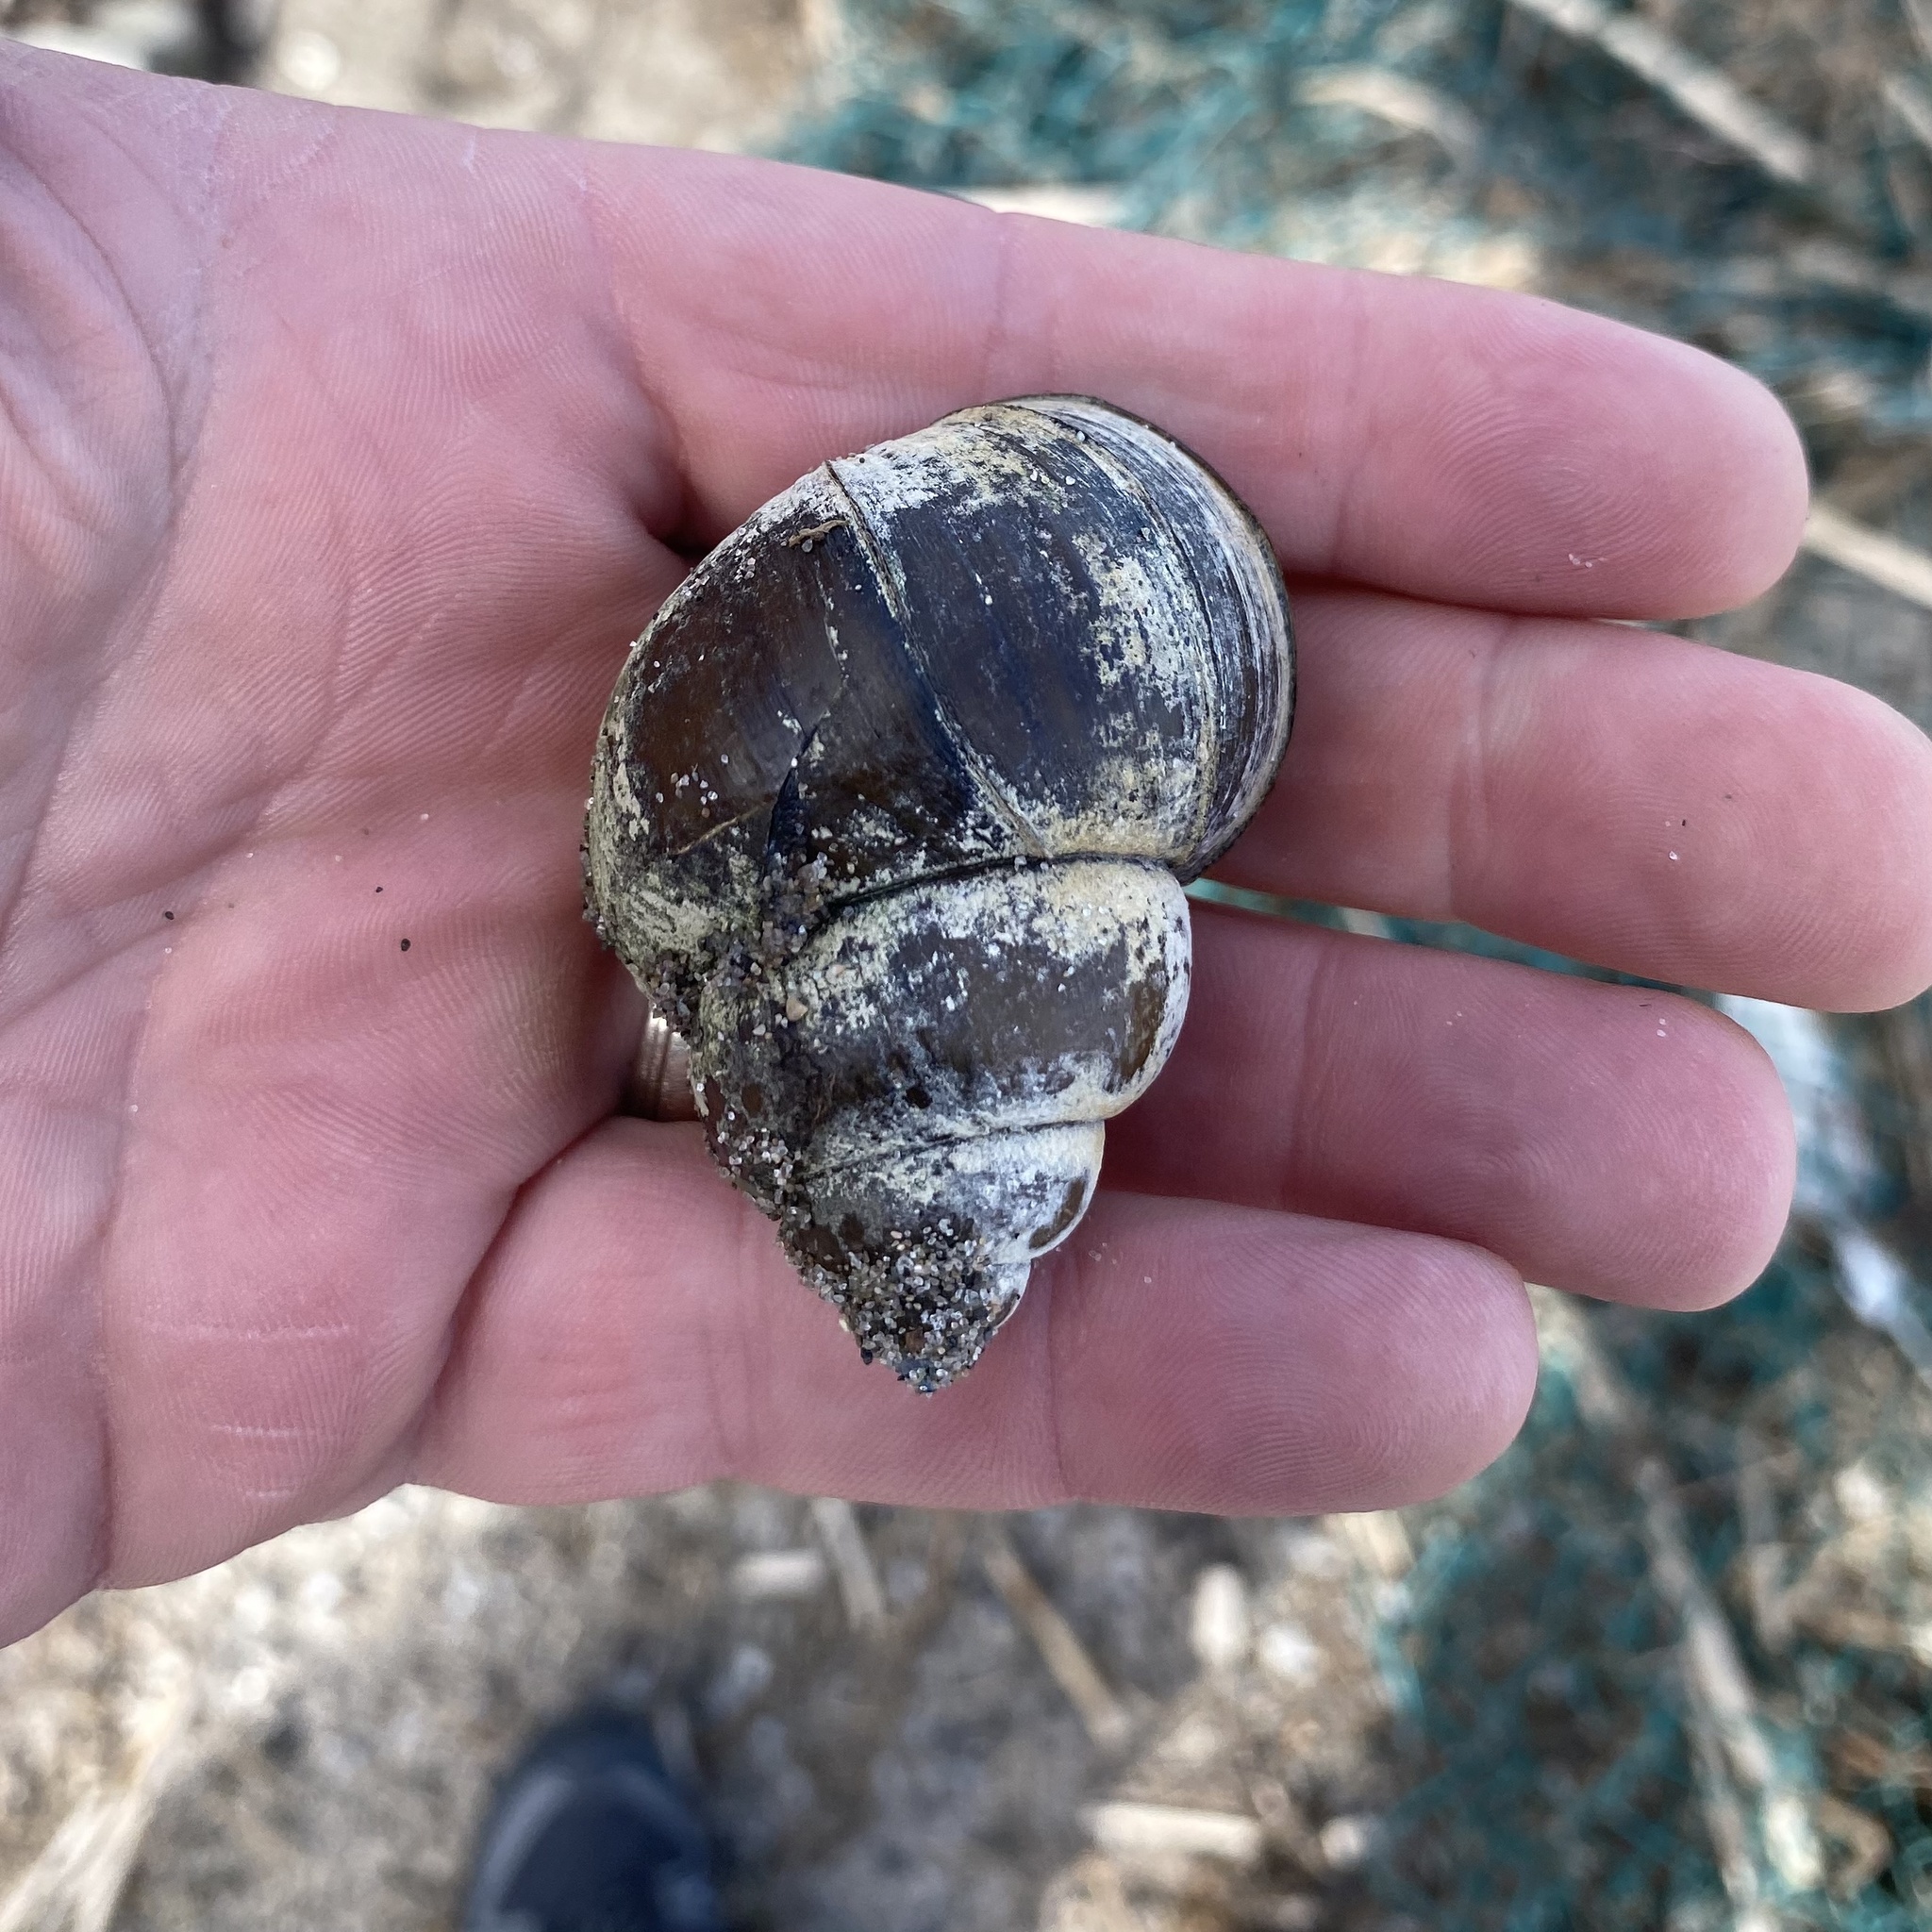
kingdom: Animalia
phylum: Mollusca
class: Gastropoda
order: Architaenioglossa
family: Viviparidae
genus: Cipangopaludina
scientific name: Cipangopaludina chinensis
